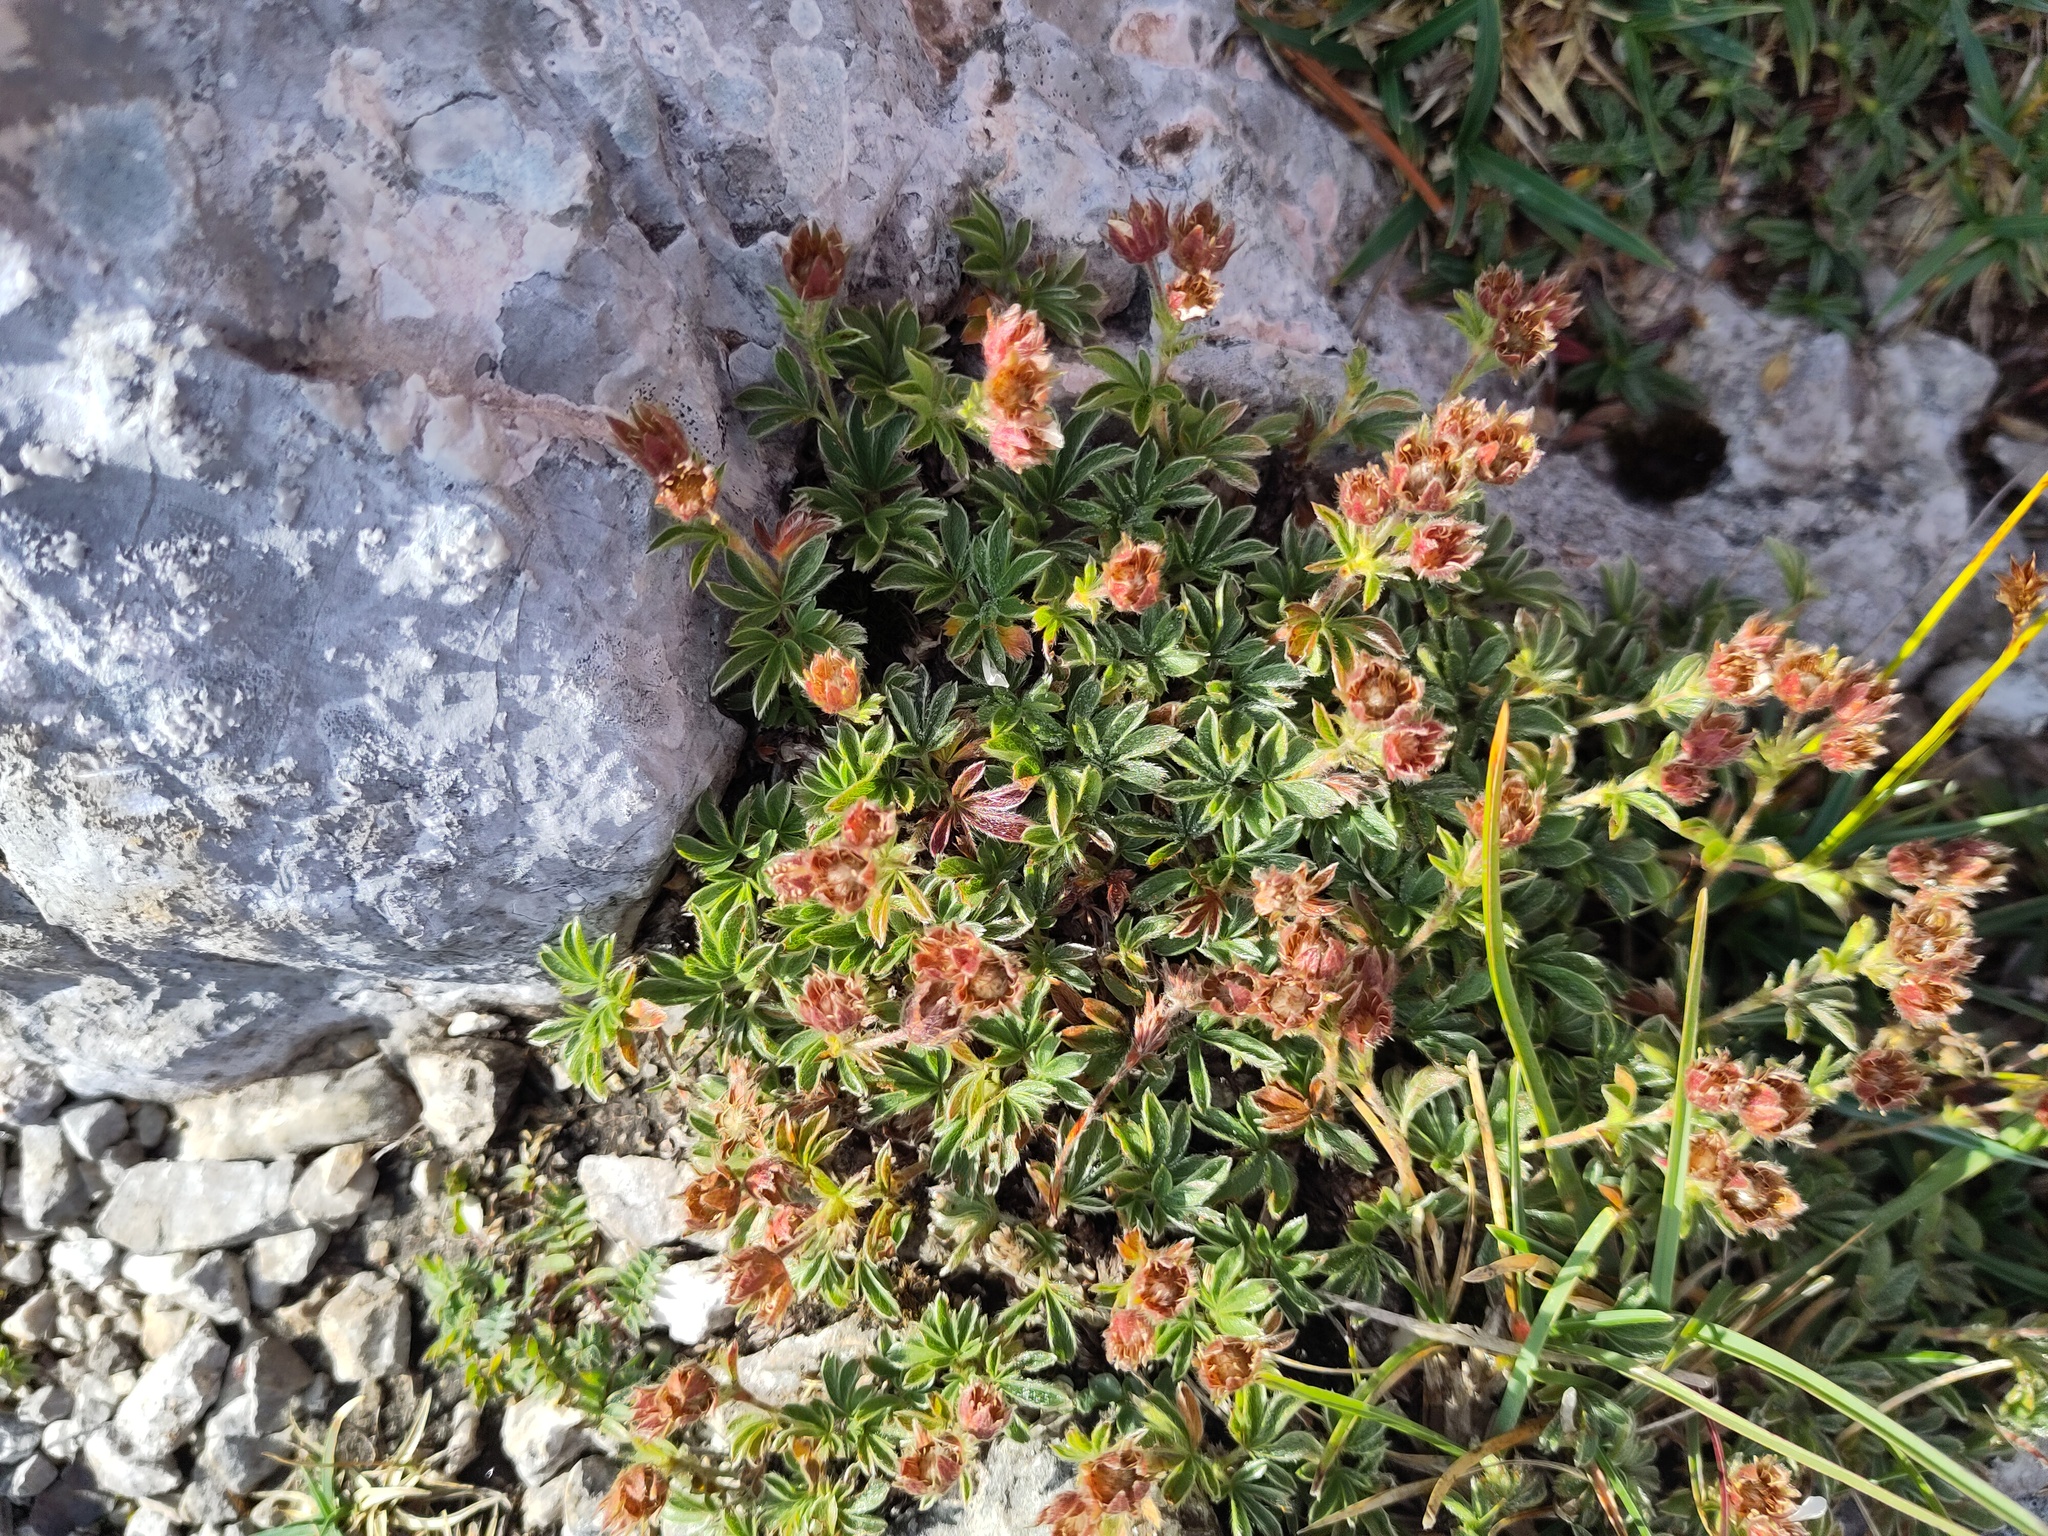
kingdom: Plantae
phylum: Tracheophyta
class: Magnoliopsida
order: Rosales
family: Rosaceae
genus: Potentilla
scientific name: Potentilla clusiana
